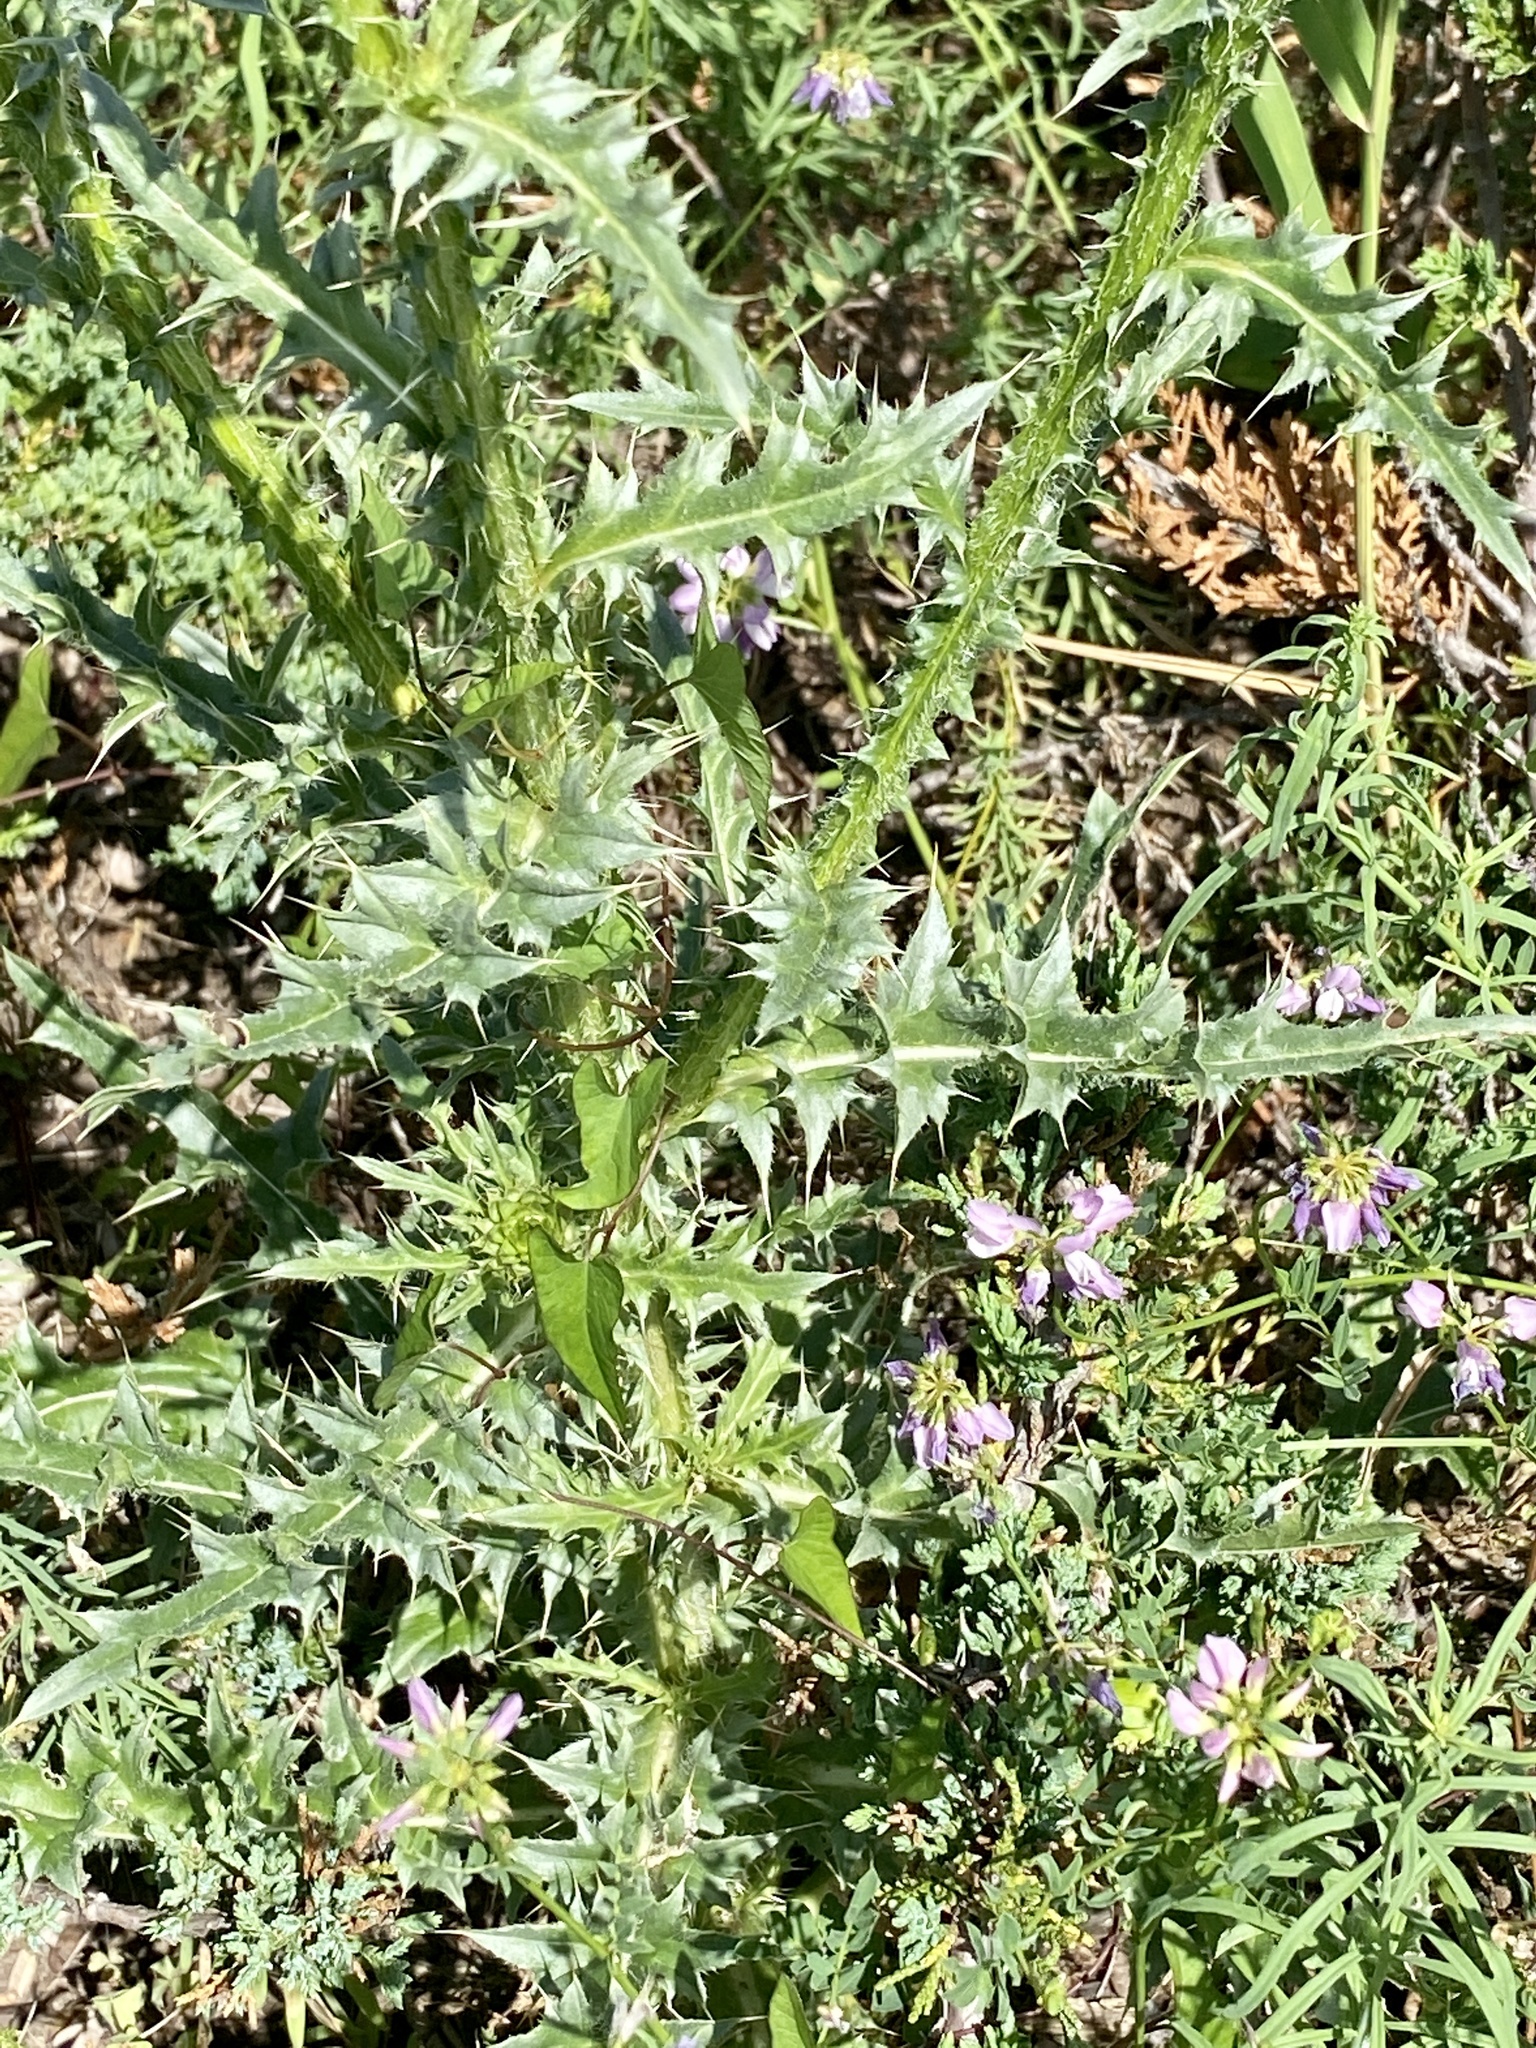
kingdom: Plantae
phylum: Tracheophyta
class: Magnoliopsida
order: Asterales
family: Asteraceae
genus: Carduus
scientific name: Carduus nutans
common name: Musk thistle
